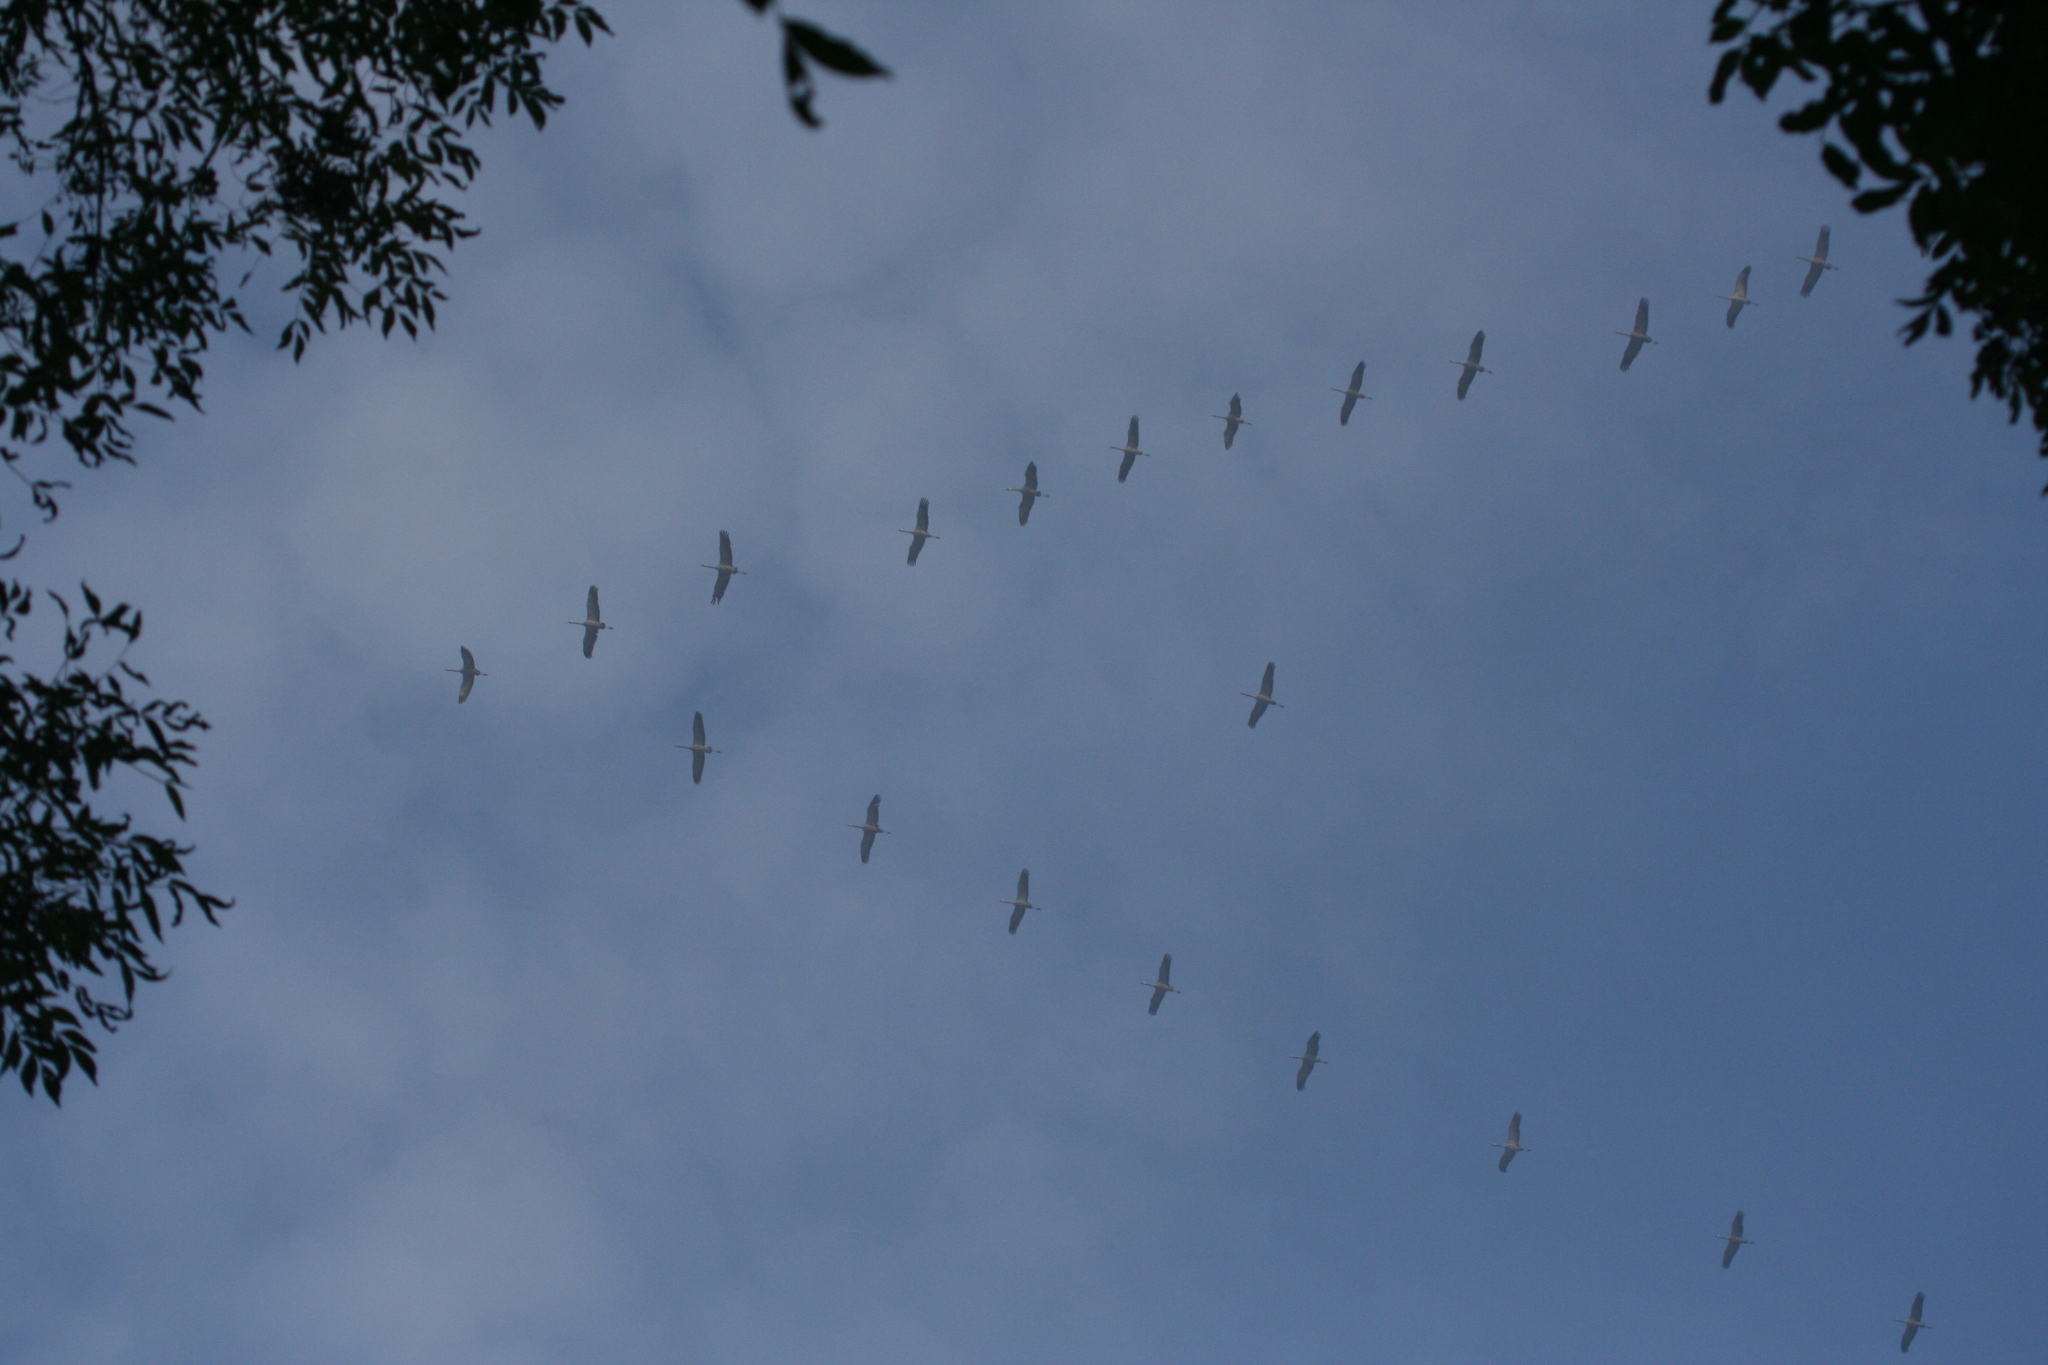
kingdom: Animalia
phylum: Chordata
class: Aves
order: Gruiformes
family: Gruidae
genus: Grus
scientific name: Grus grus
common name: Common crane
